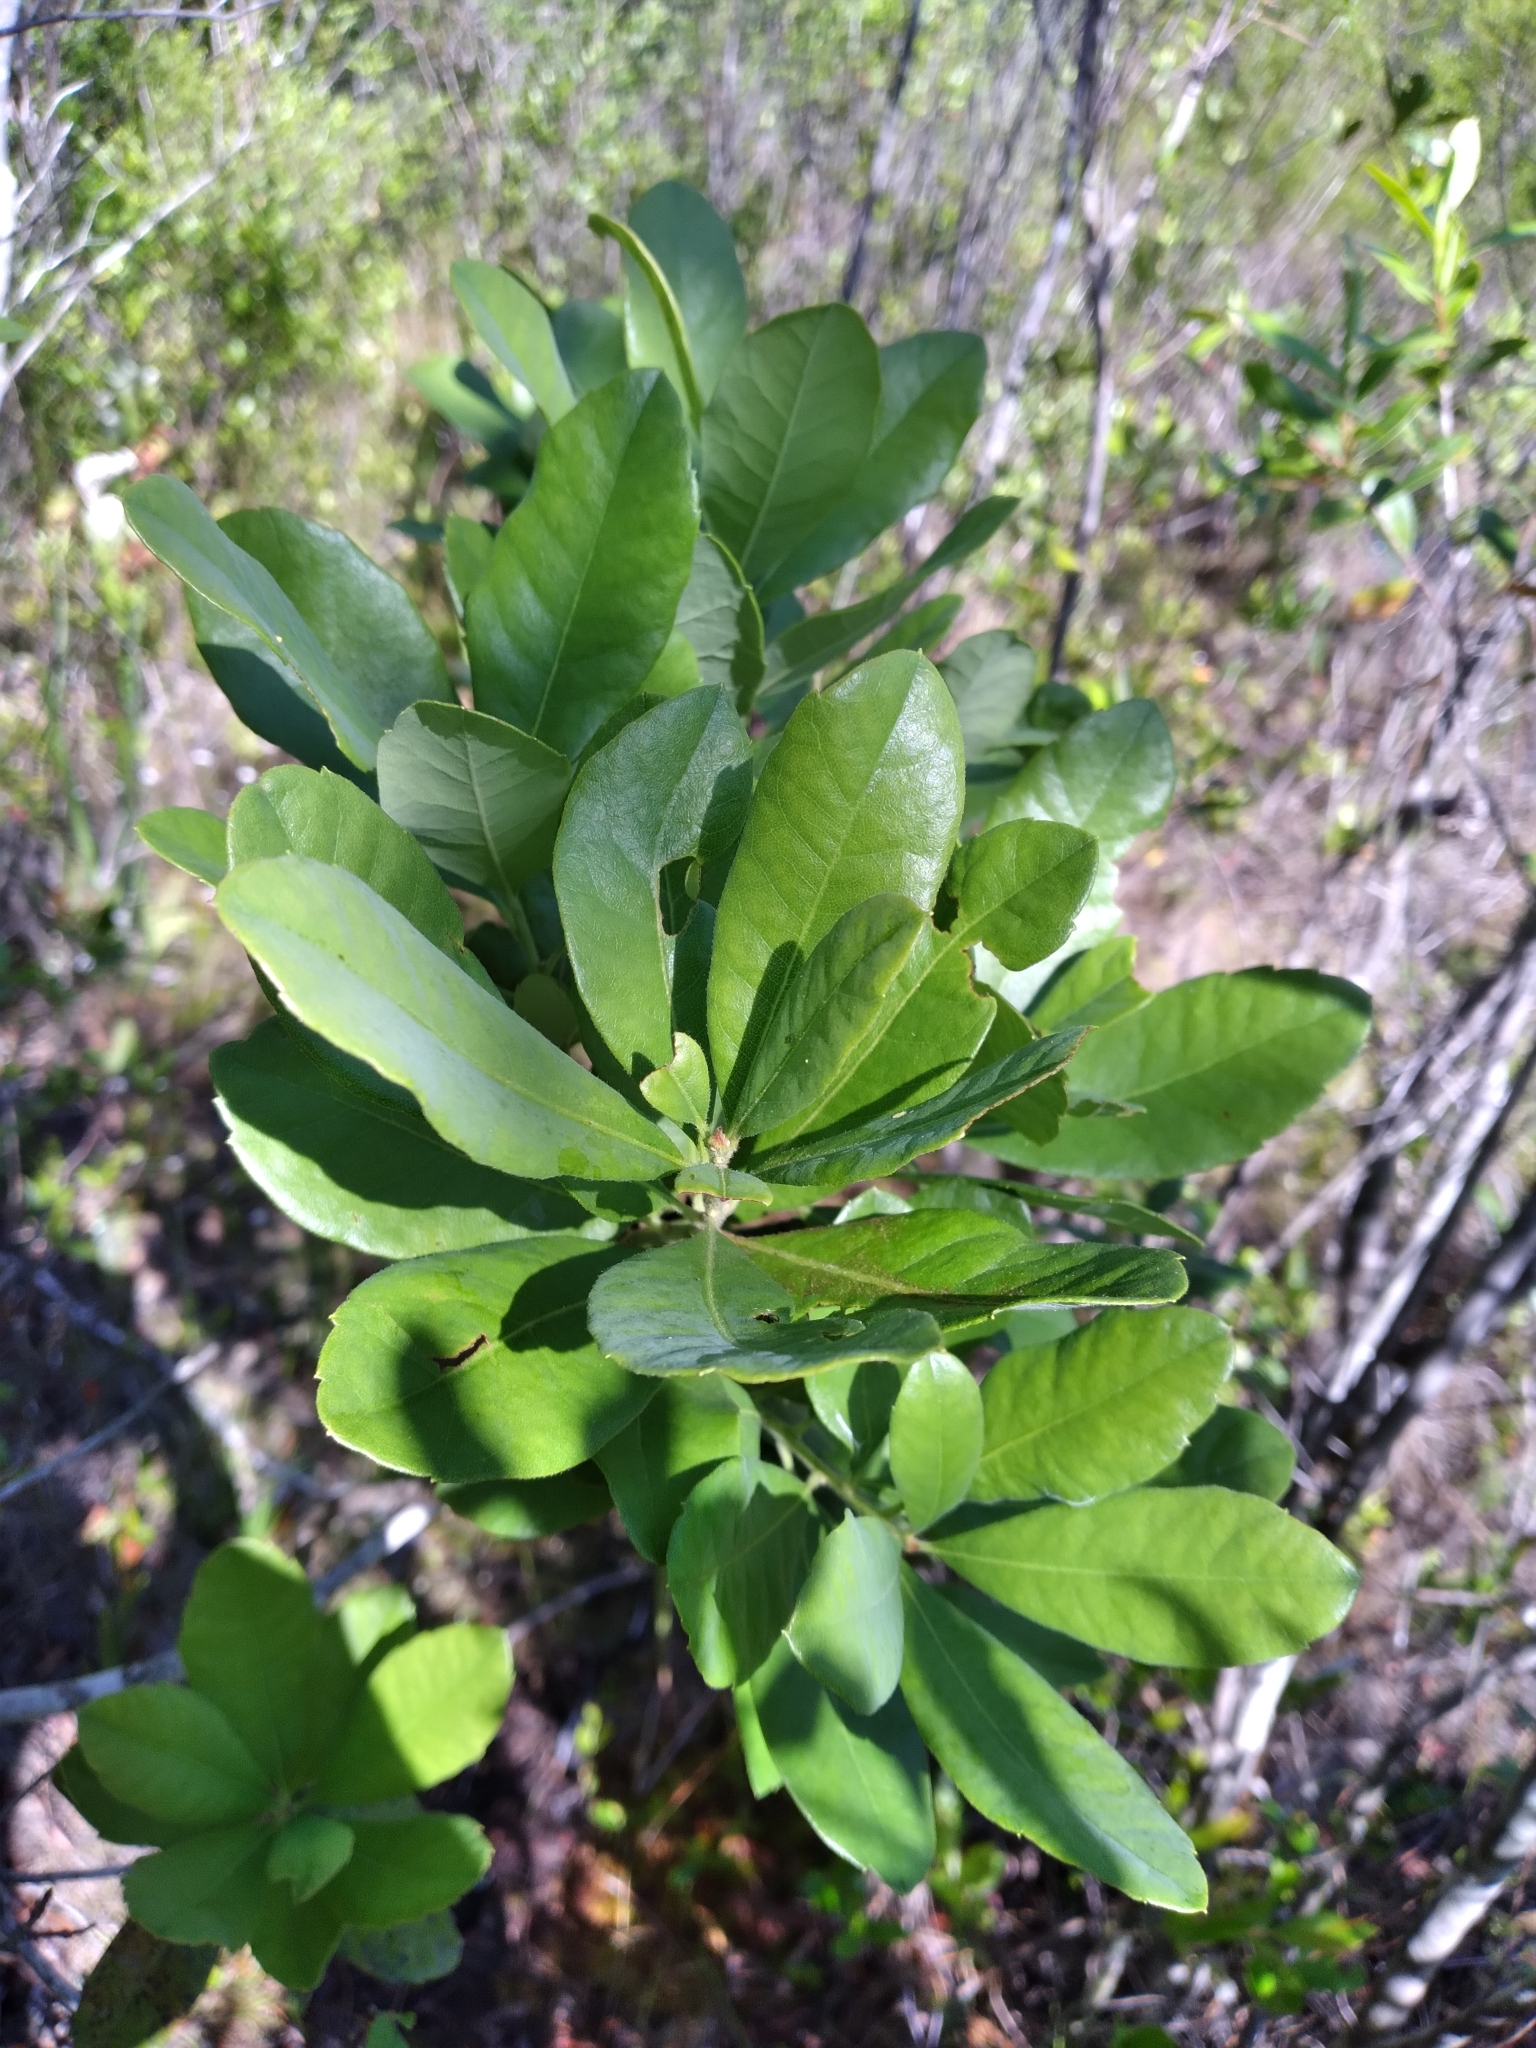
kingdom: Plantae
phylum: Tracheophyta
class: Magnoliopsida
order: Fagales
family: Myricaceae
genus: Morella
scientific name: Morella caroliniensis
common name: Evergreen bayberry
